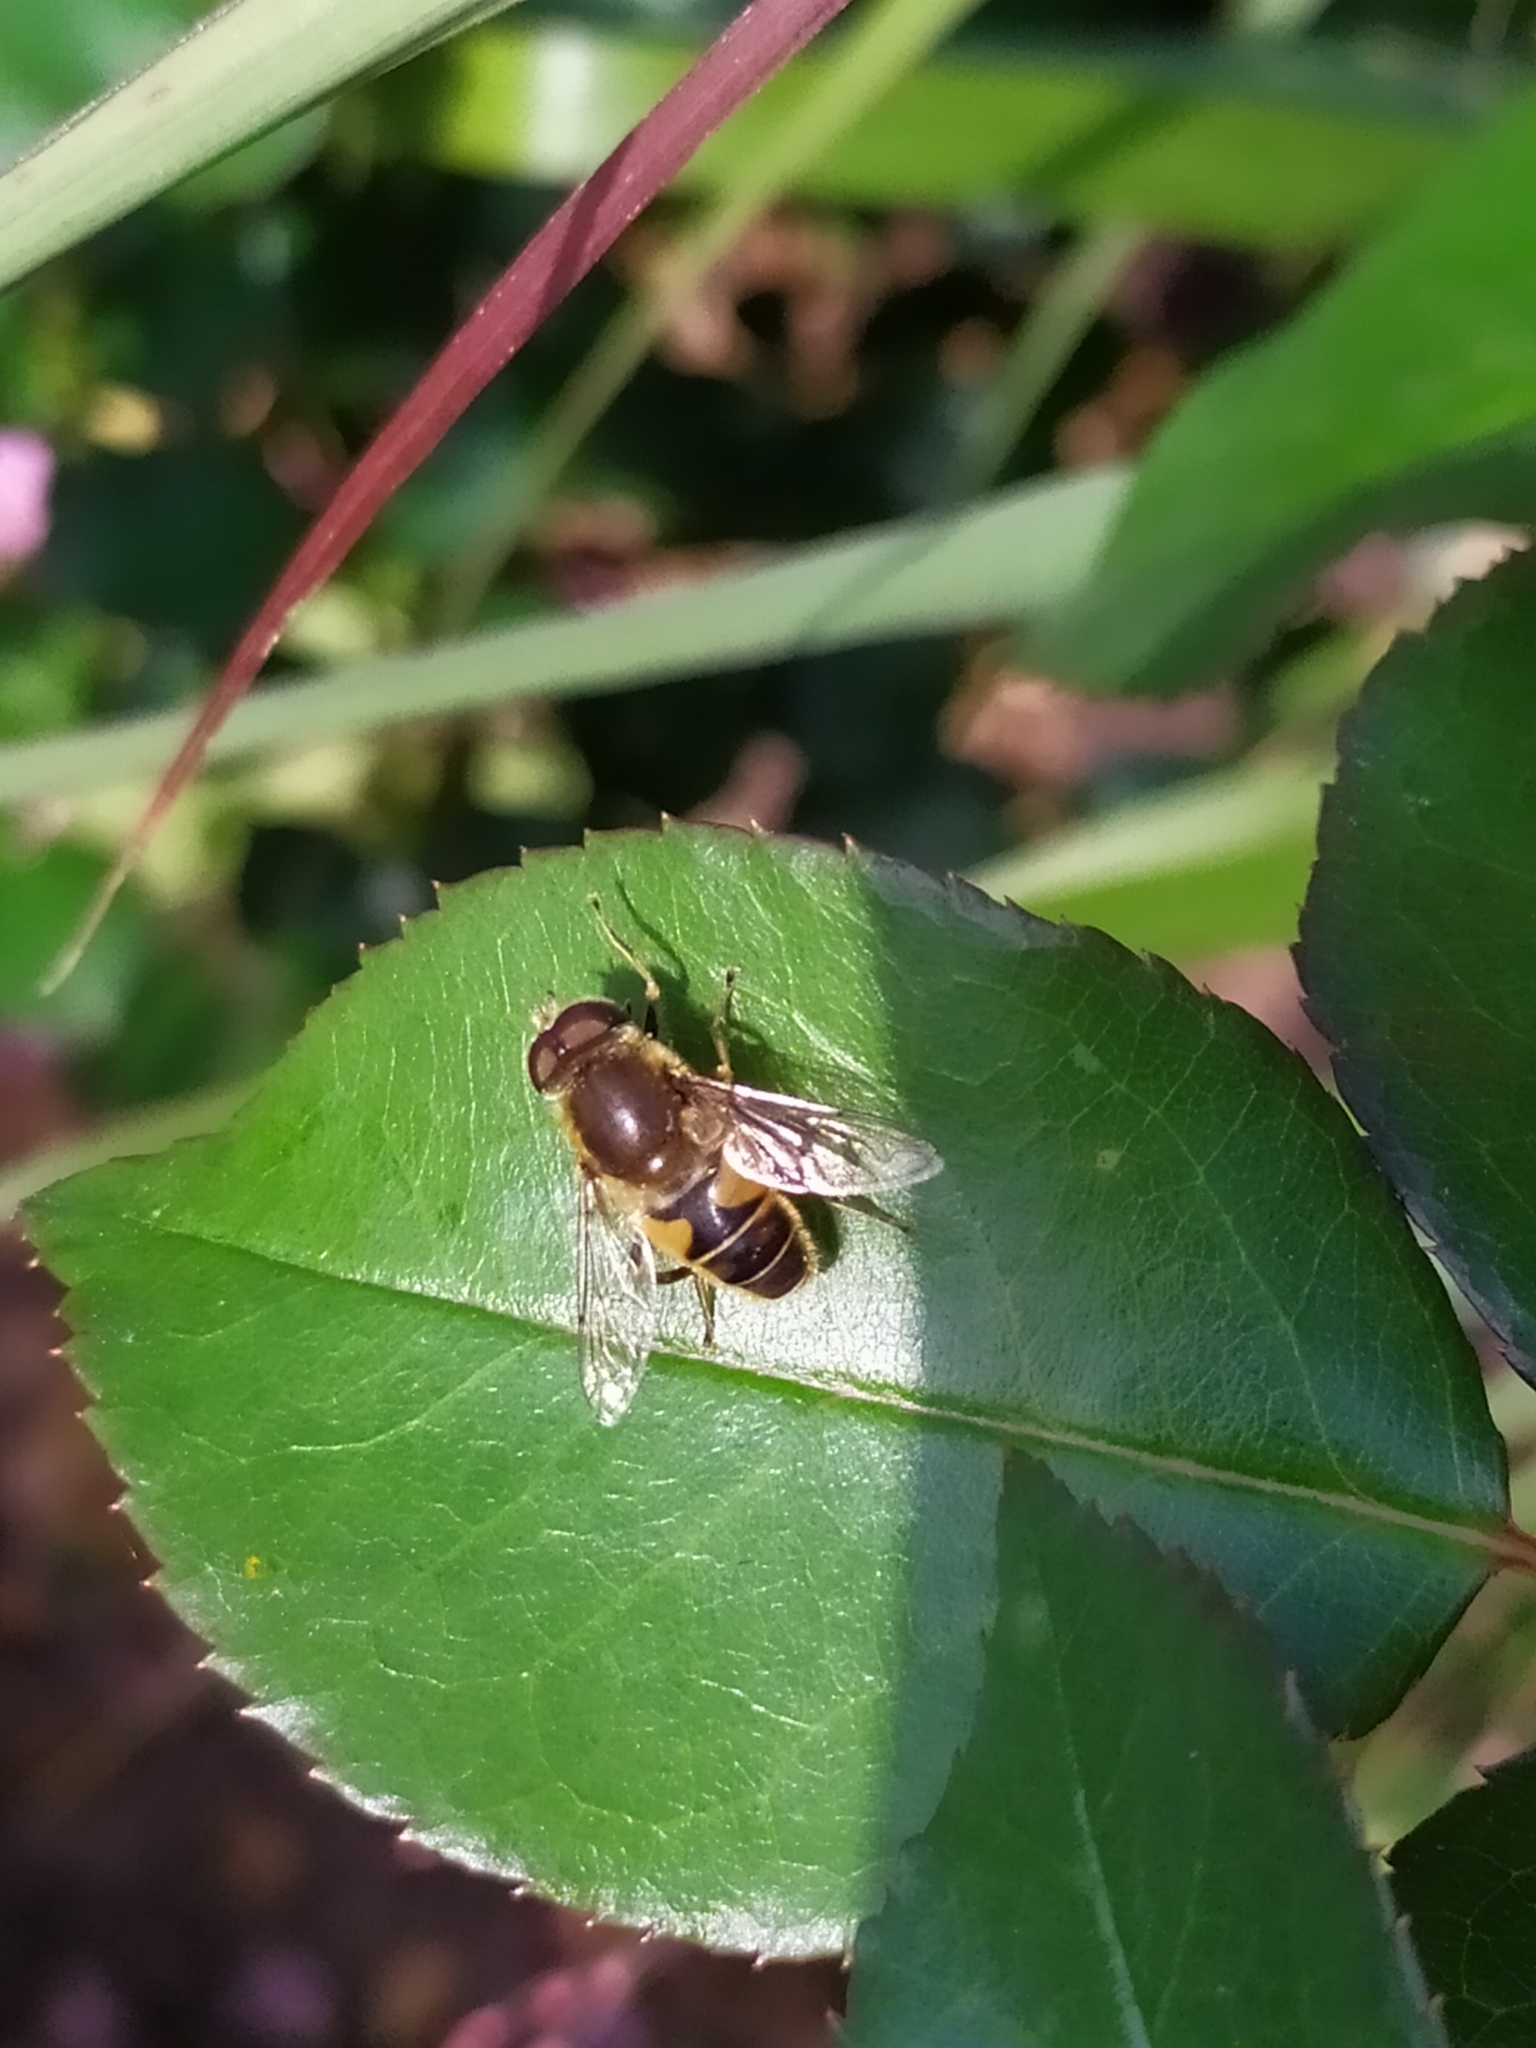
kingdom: Animalia
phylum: Arthropoda
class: Insecta
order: Diptera
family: Syrphidae
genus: Eristalis
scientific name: Eristalis nemorum
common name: Orange-spined drone fly
